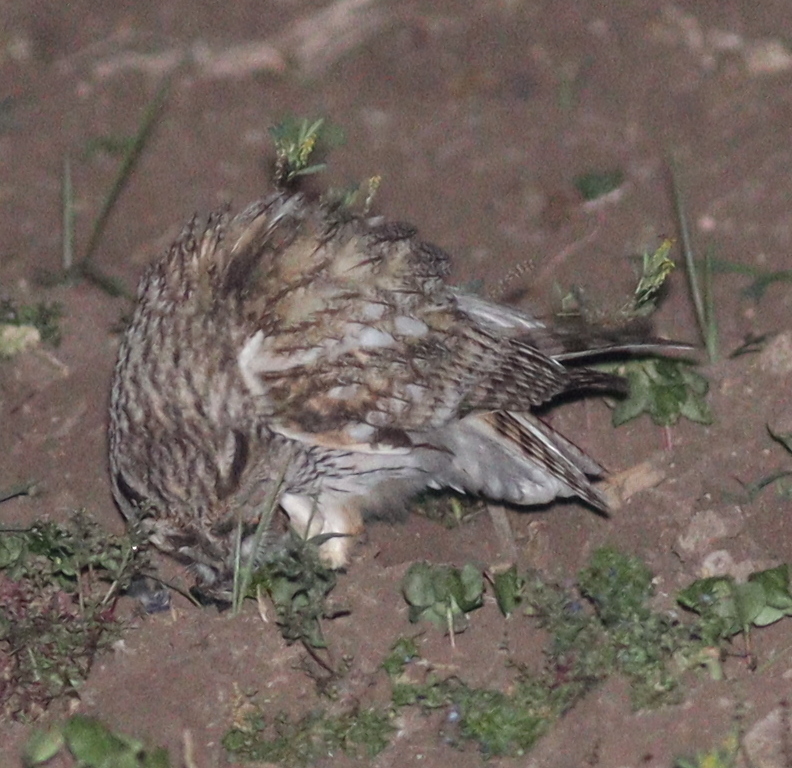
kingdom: Animalia
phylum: Chordata
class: Aves
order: Strigiformes
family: Strigidae
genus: Asio
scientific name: Asio otus
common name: Long-eared owl
